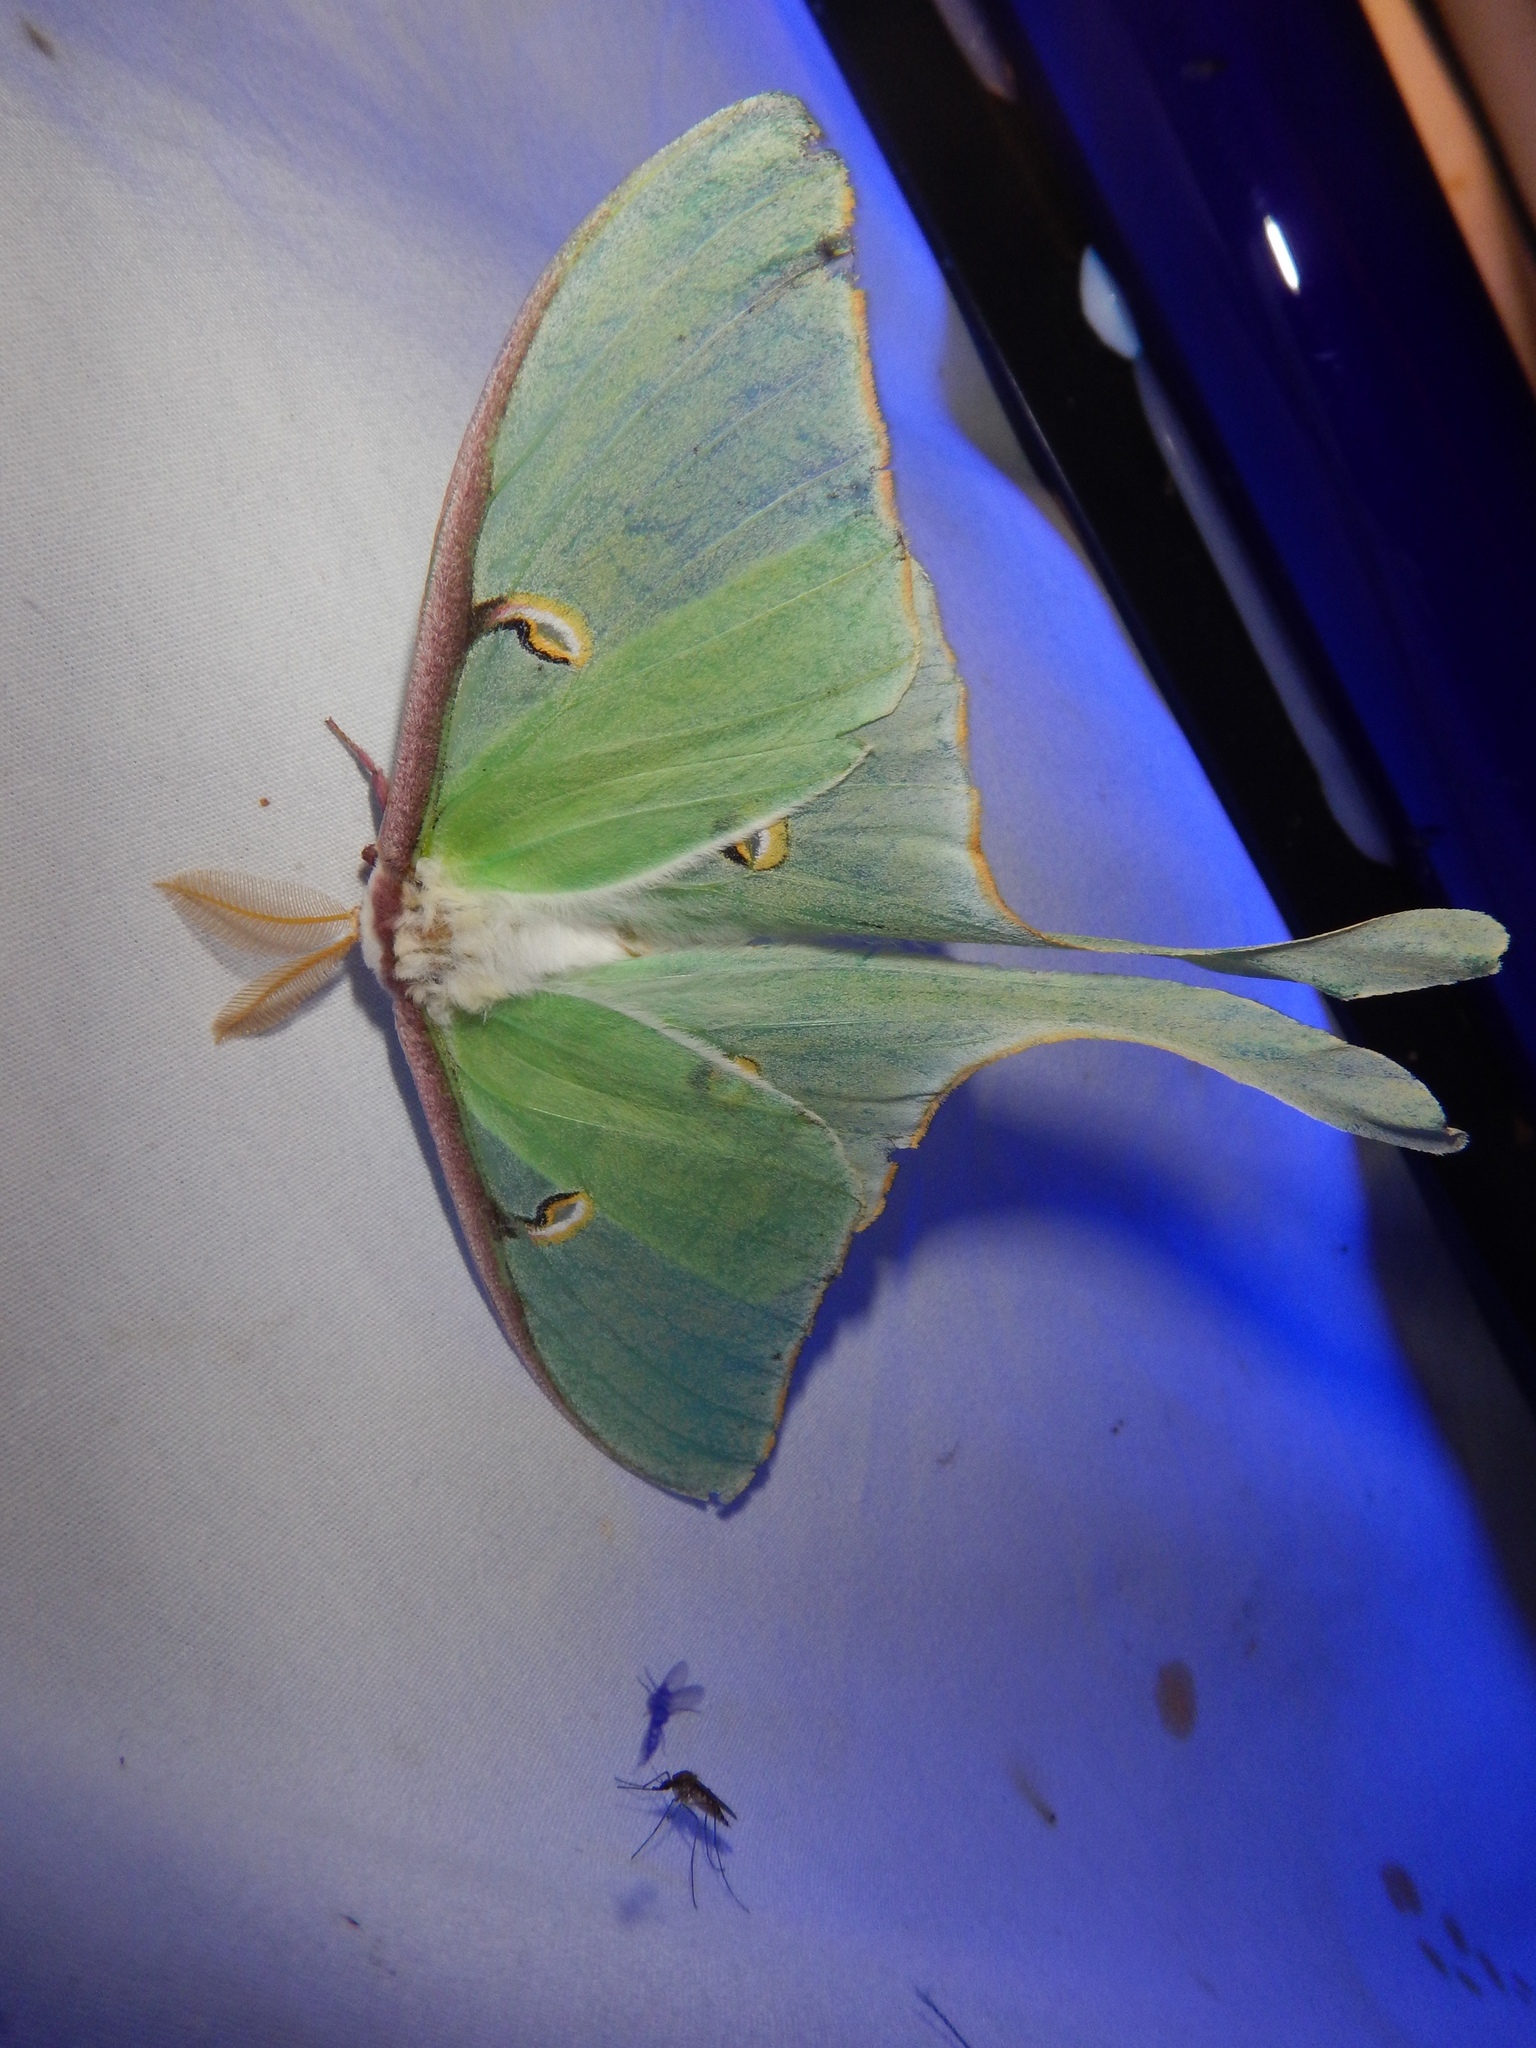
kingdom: Animalia
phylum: Arthropoda
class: Insecta
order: Lepidoptera
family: Saturniidae
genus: Actias
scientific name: Actias luna
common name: Luna moth
